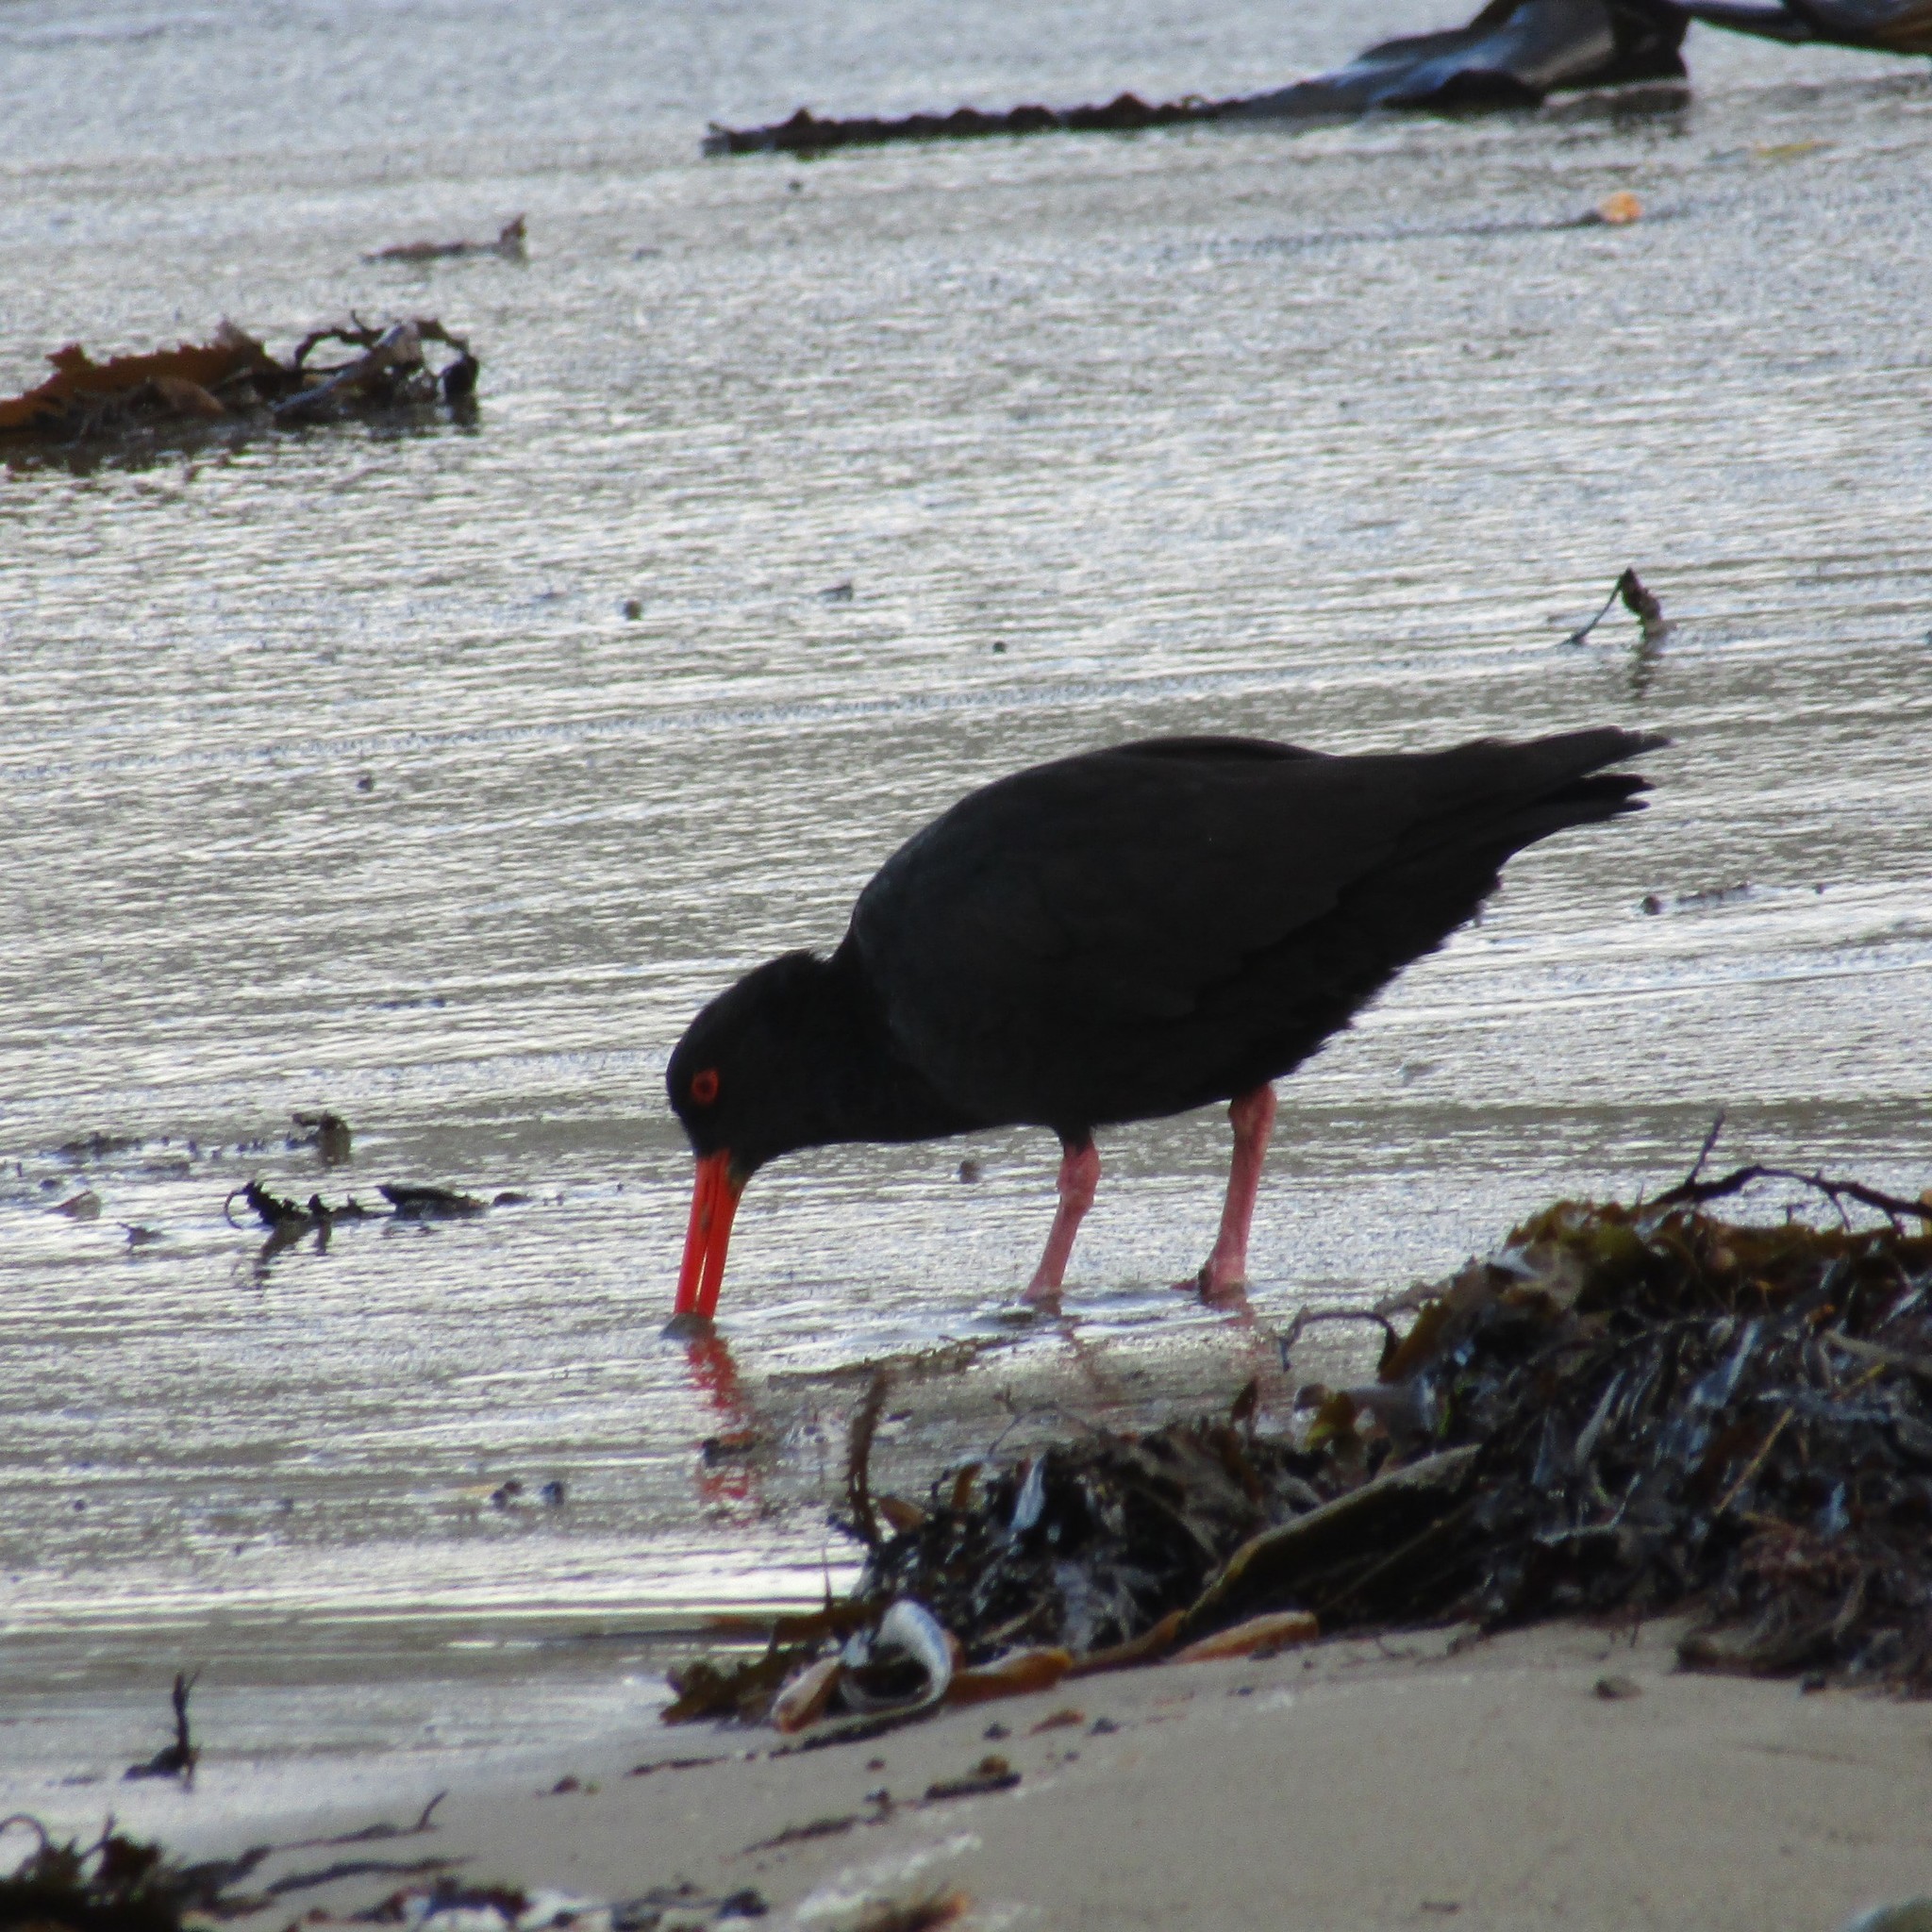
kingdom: Animalia
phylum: Chordata
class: Aves
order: Charadriiformes
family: Haematopodidae
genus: Haematopus
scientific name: Haematopus unicolor
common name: Variable oystercatcher
